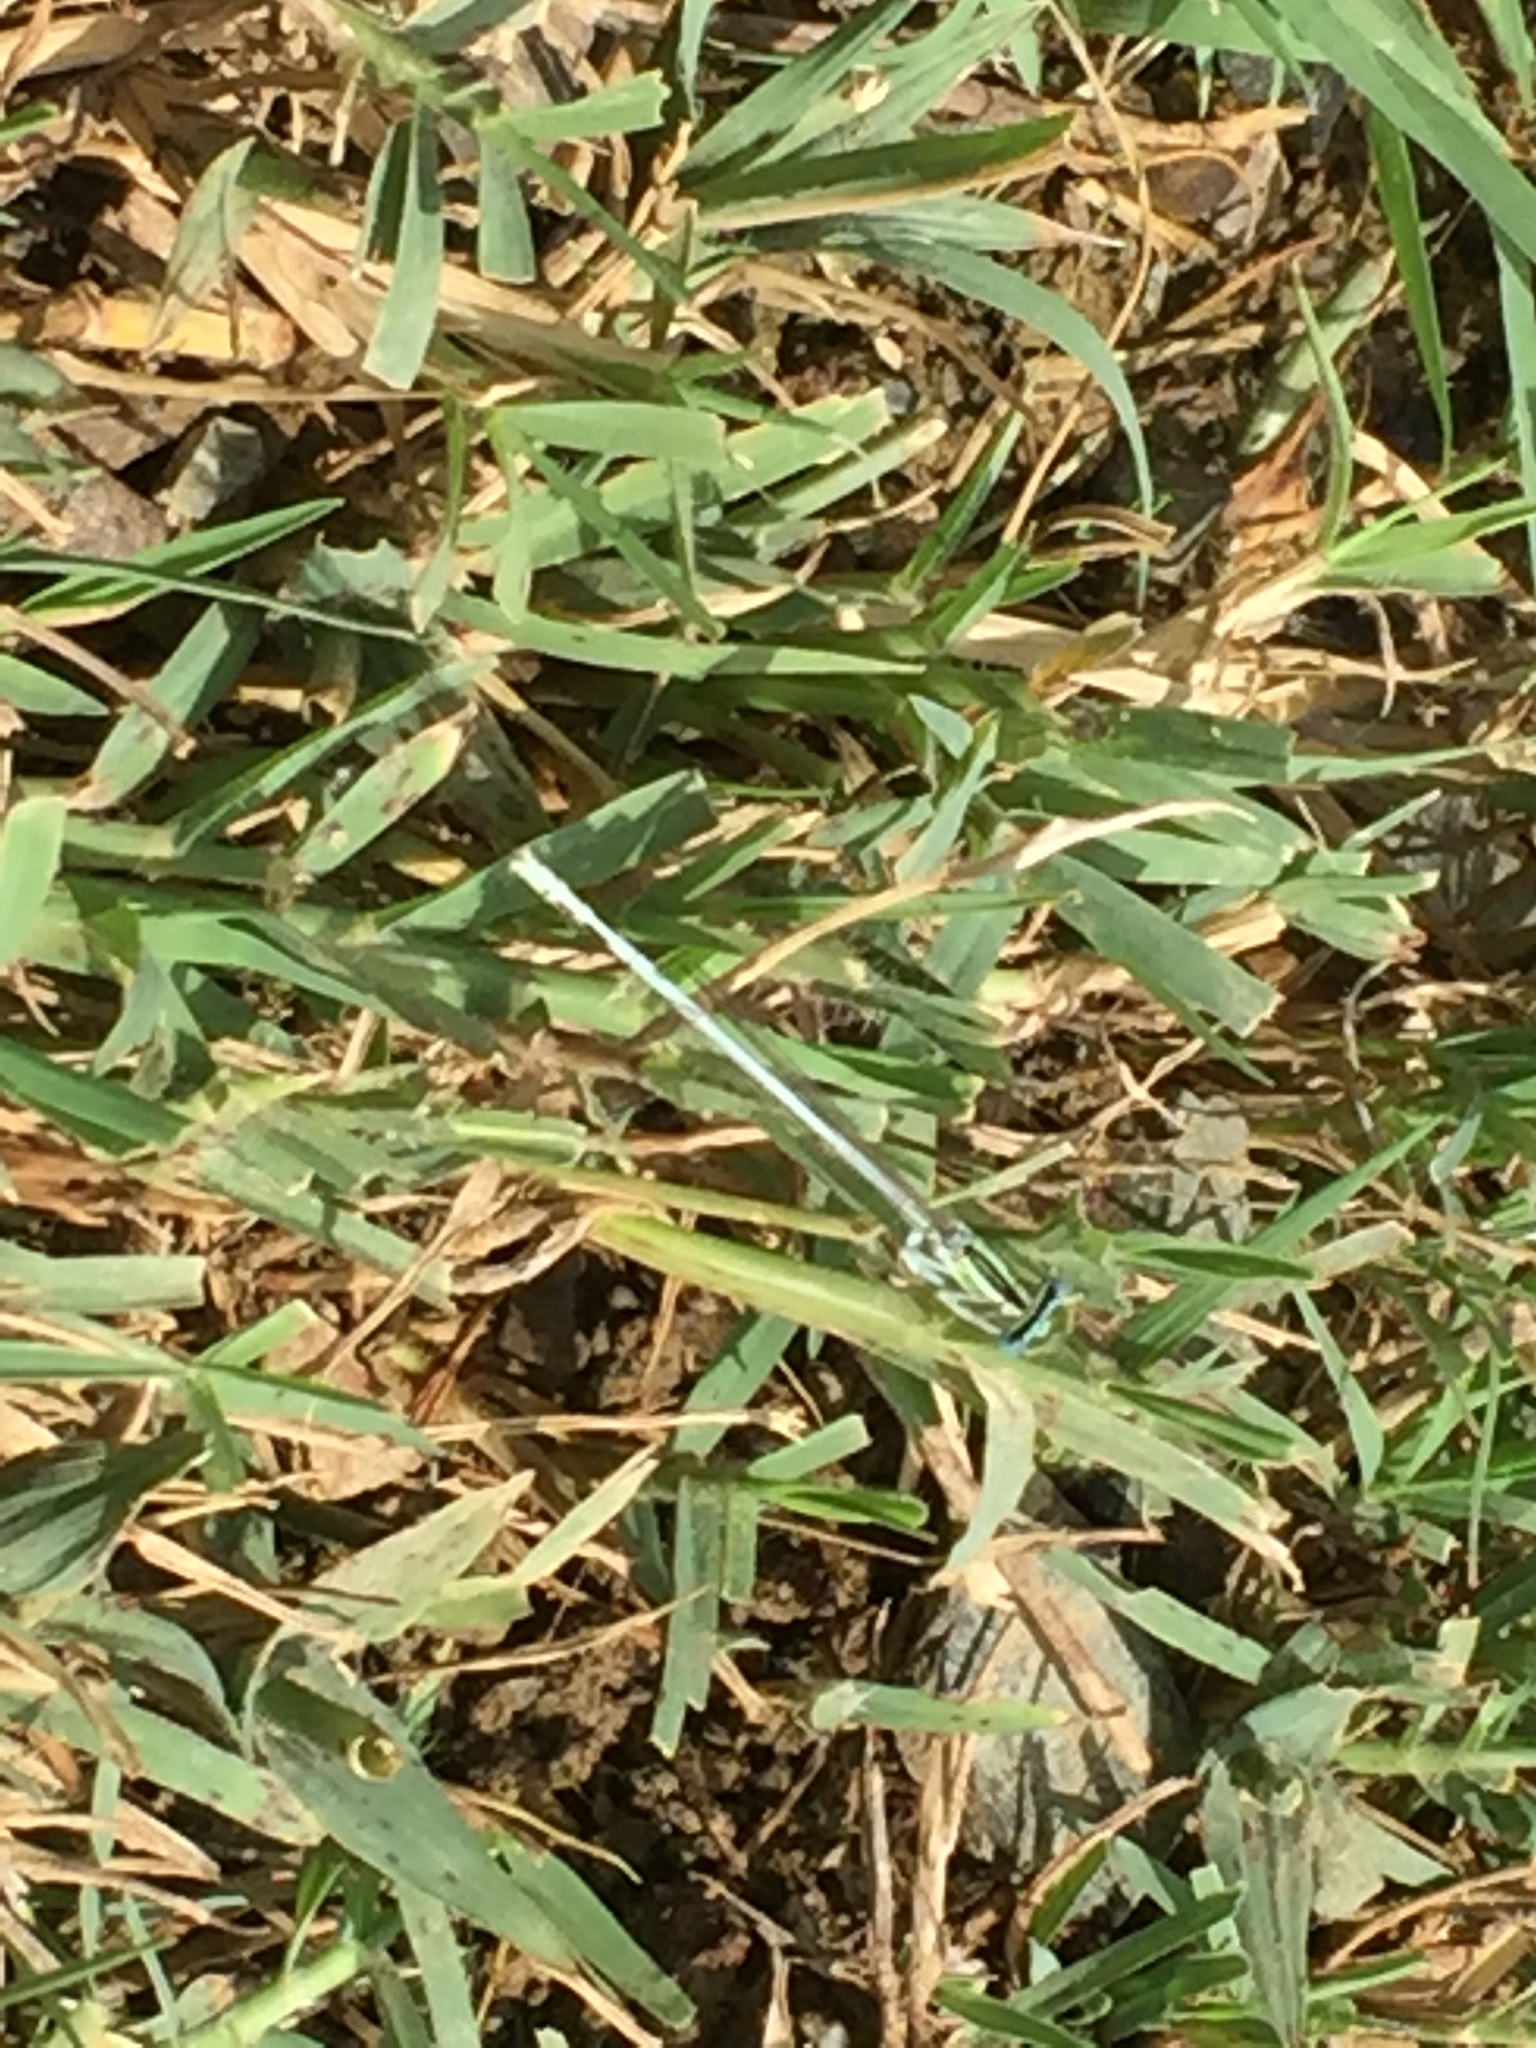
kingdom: Animalia
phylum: Arthropoda
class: Insecta
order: Odonata
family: Platycnemididae
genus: Platycnemis
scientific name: Platycnemis dealbata
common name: Ivory featherleg
